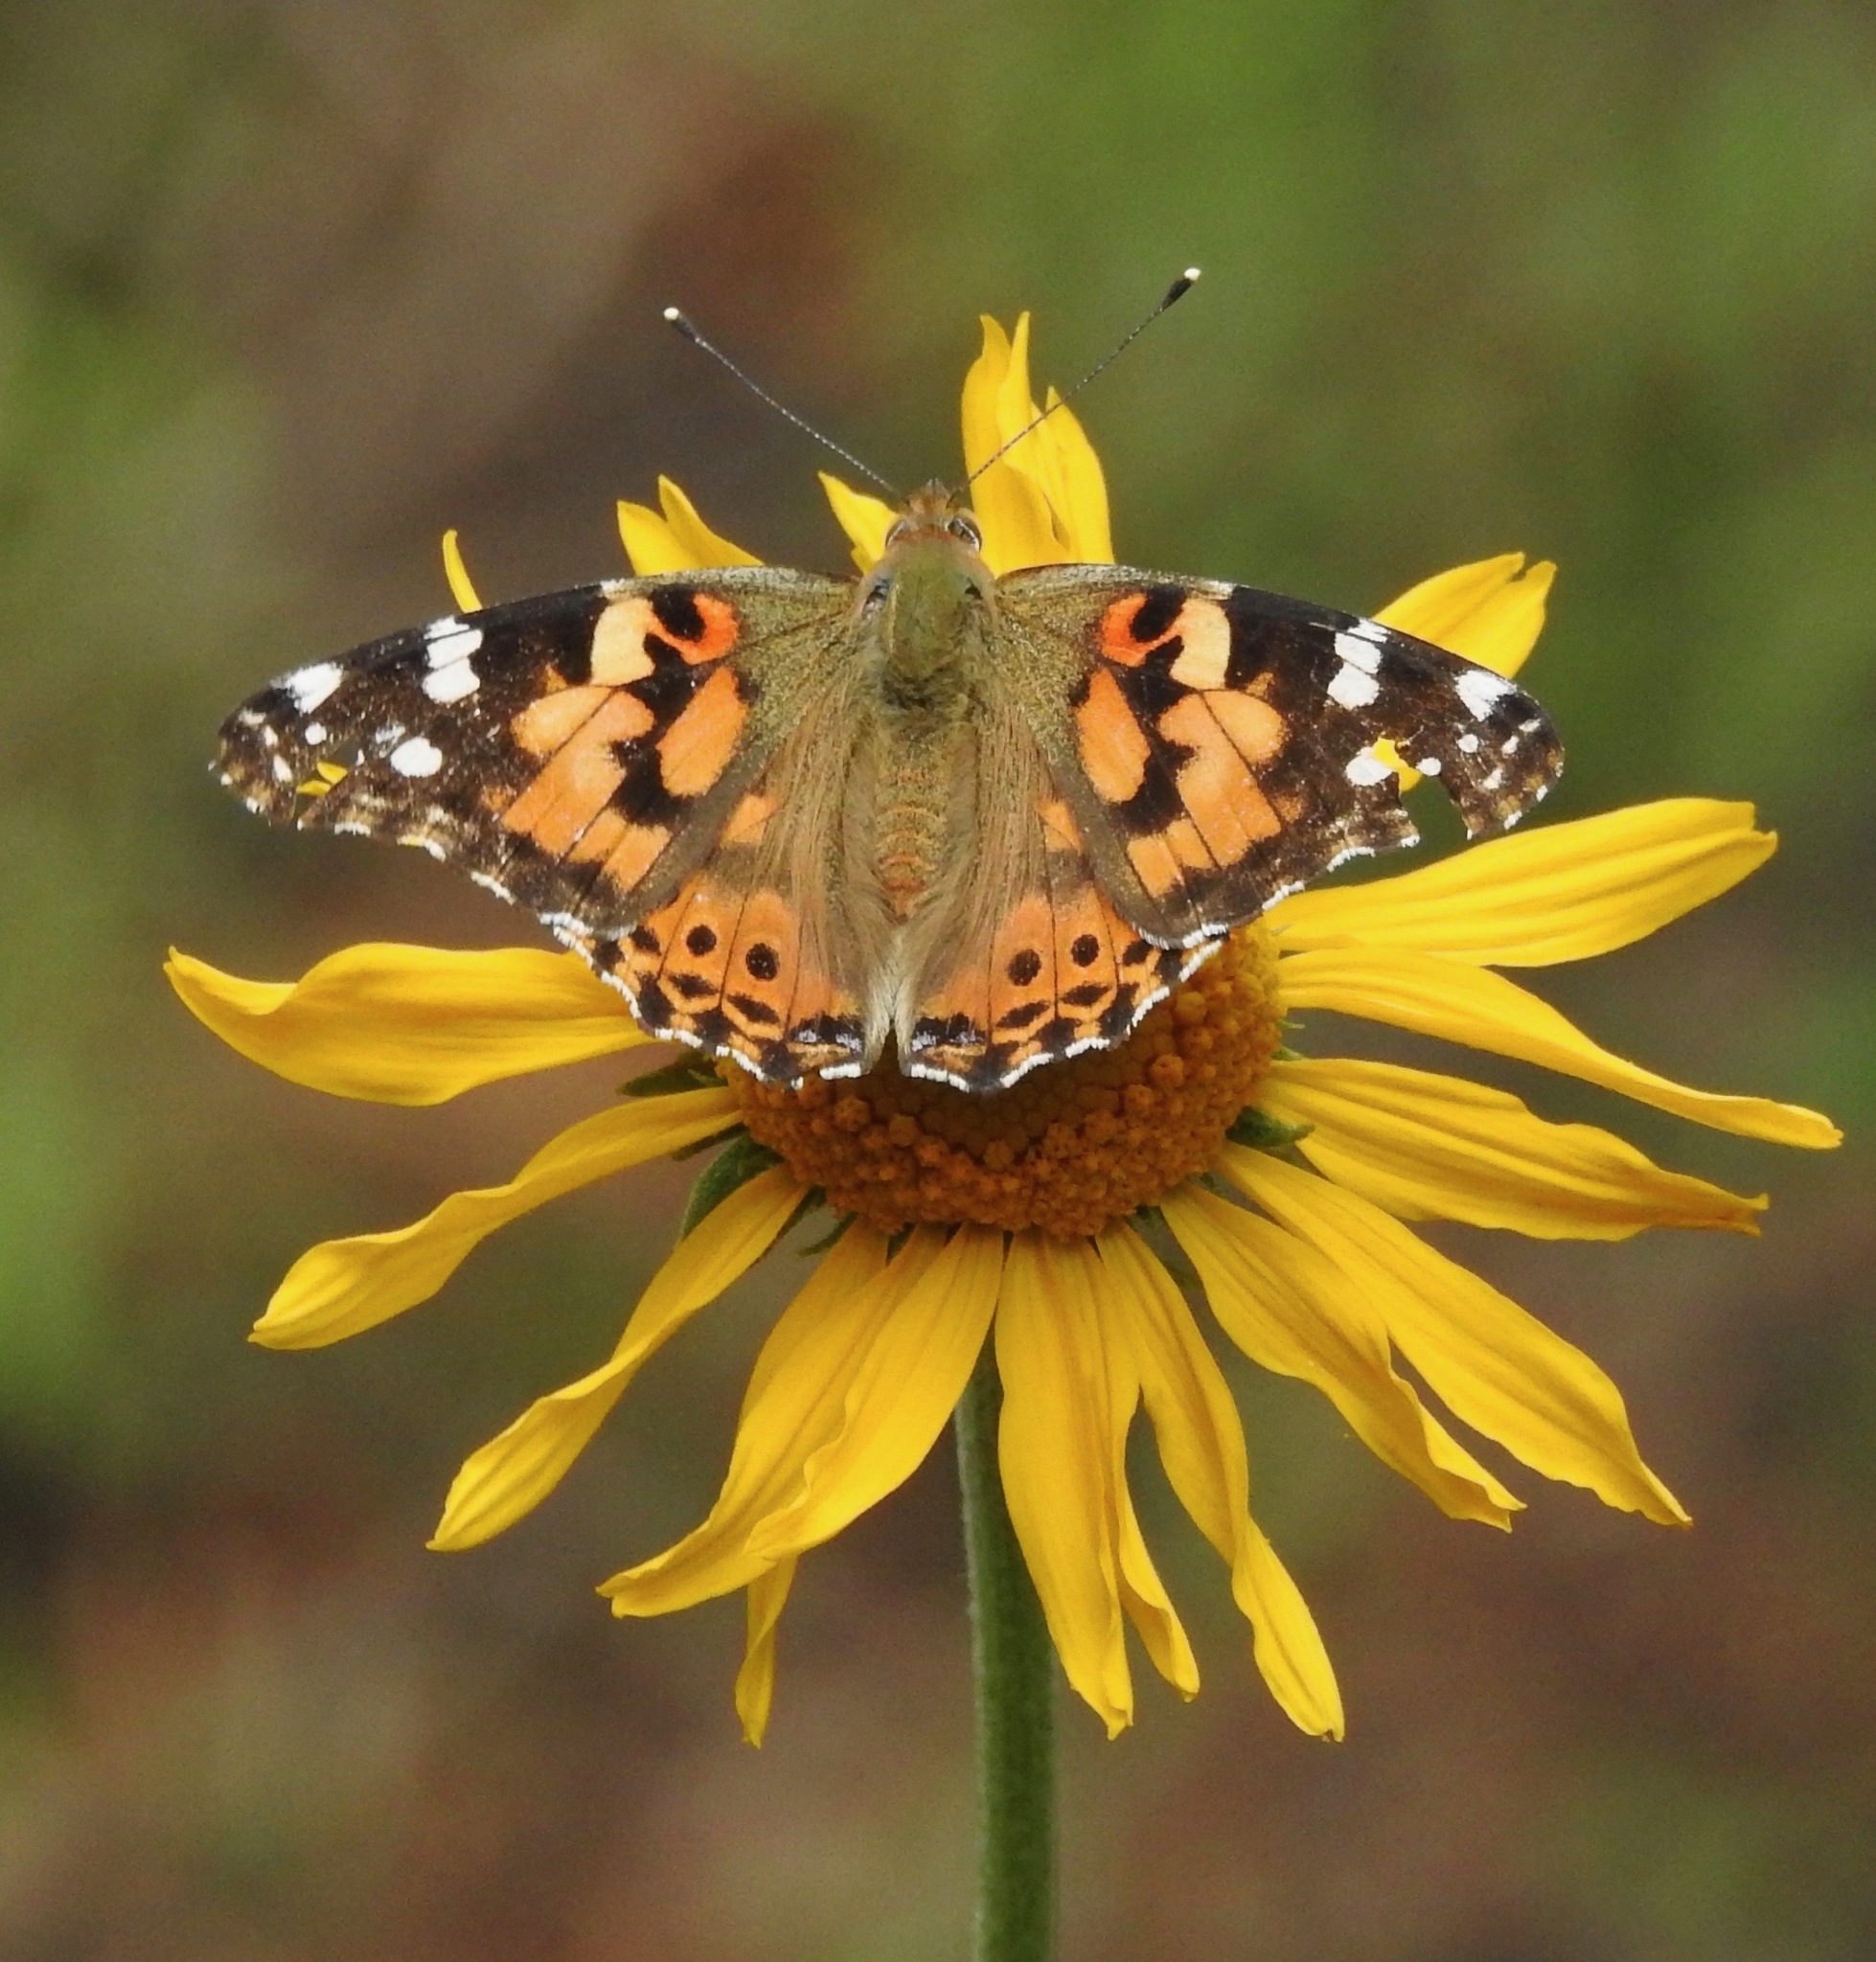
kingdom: Animalia
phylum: Arthropoda
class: Insecta
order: Lepidoptera
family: Nymphalidae
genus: Vanessa
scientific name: Vanessa cardui
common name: Painted lady
